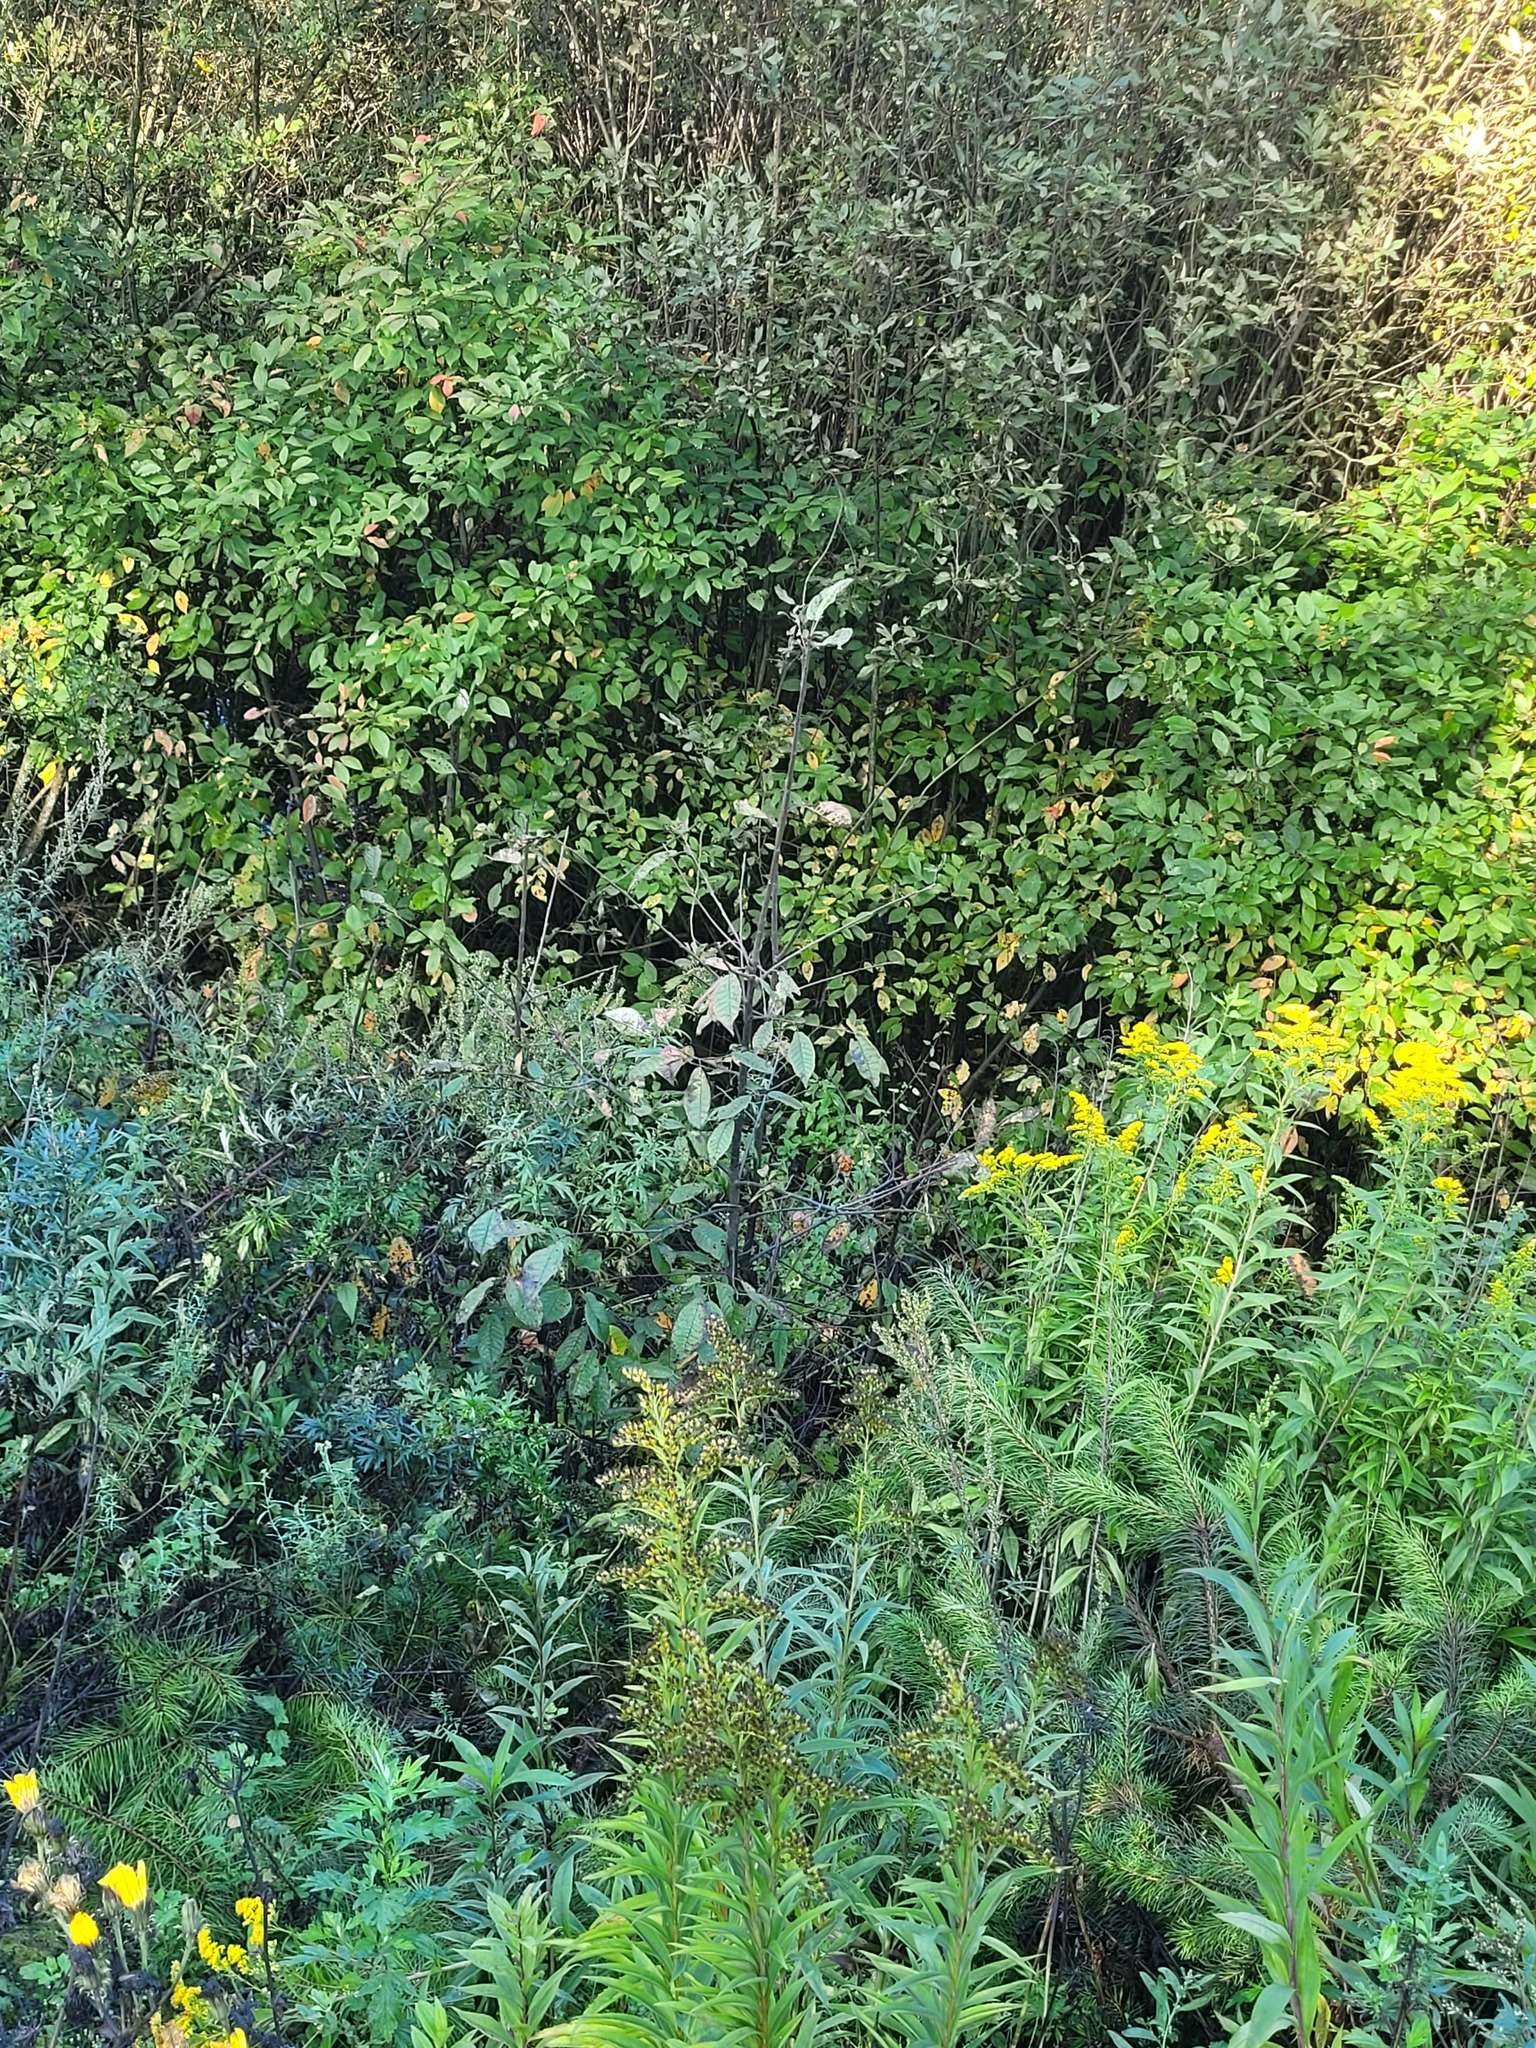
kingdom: Plantae
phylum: Tracheophyta
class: Magnoliopsida
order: Rosales
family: Rosaceae
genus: Prunus
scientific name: Prunus padus
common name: Bird cherry
